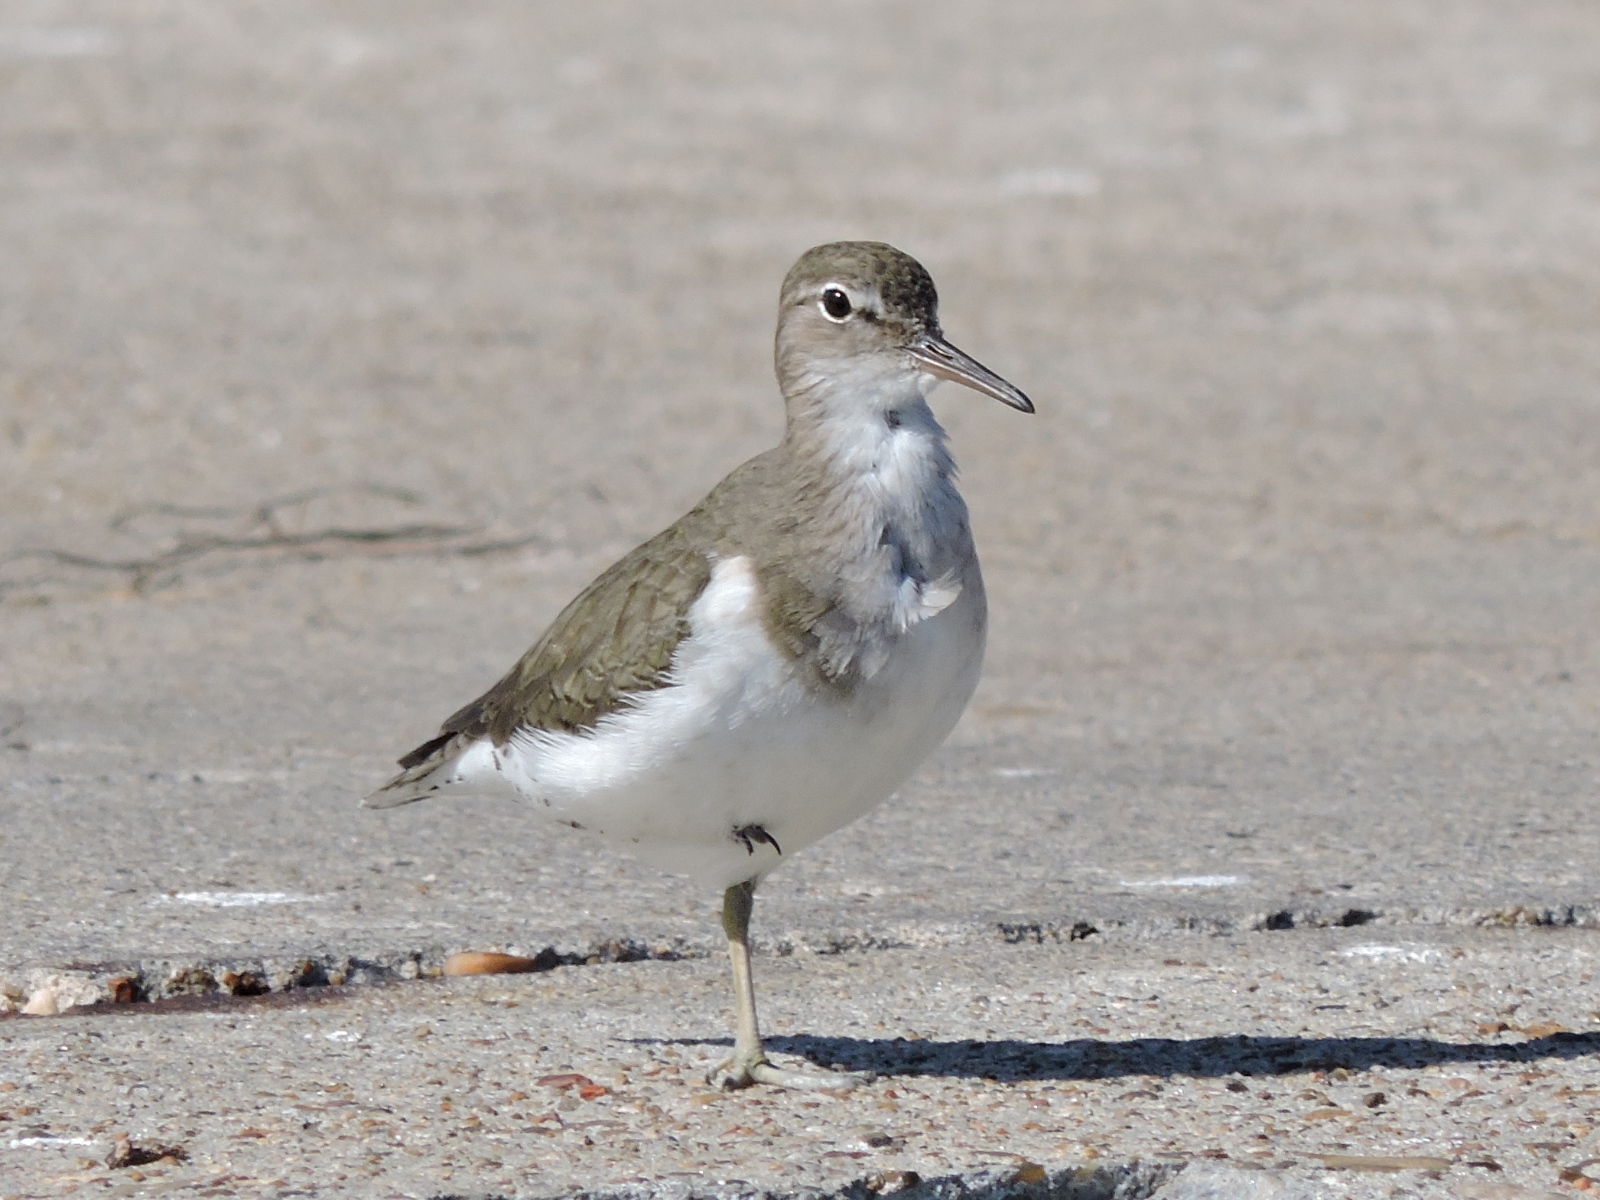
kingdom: Animalia
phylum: Chordata
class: Aves
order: Charadriiformes
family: Scolopacidae
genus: Actitis
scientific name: Actitis macularius
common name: Spotted sandpiper
